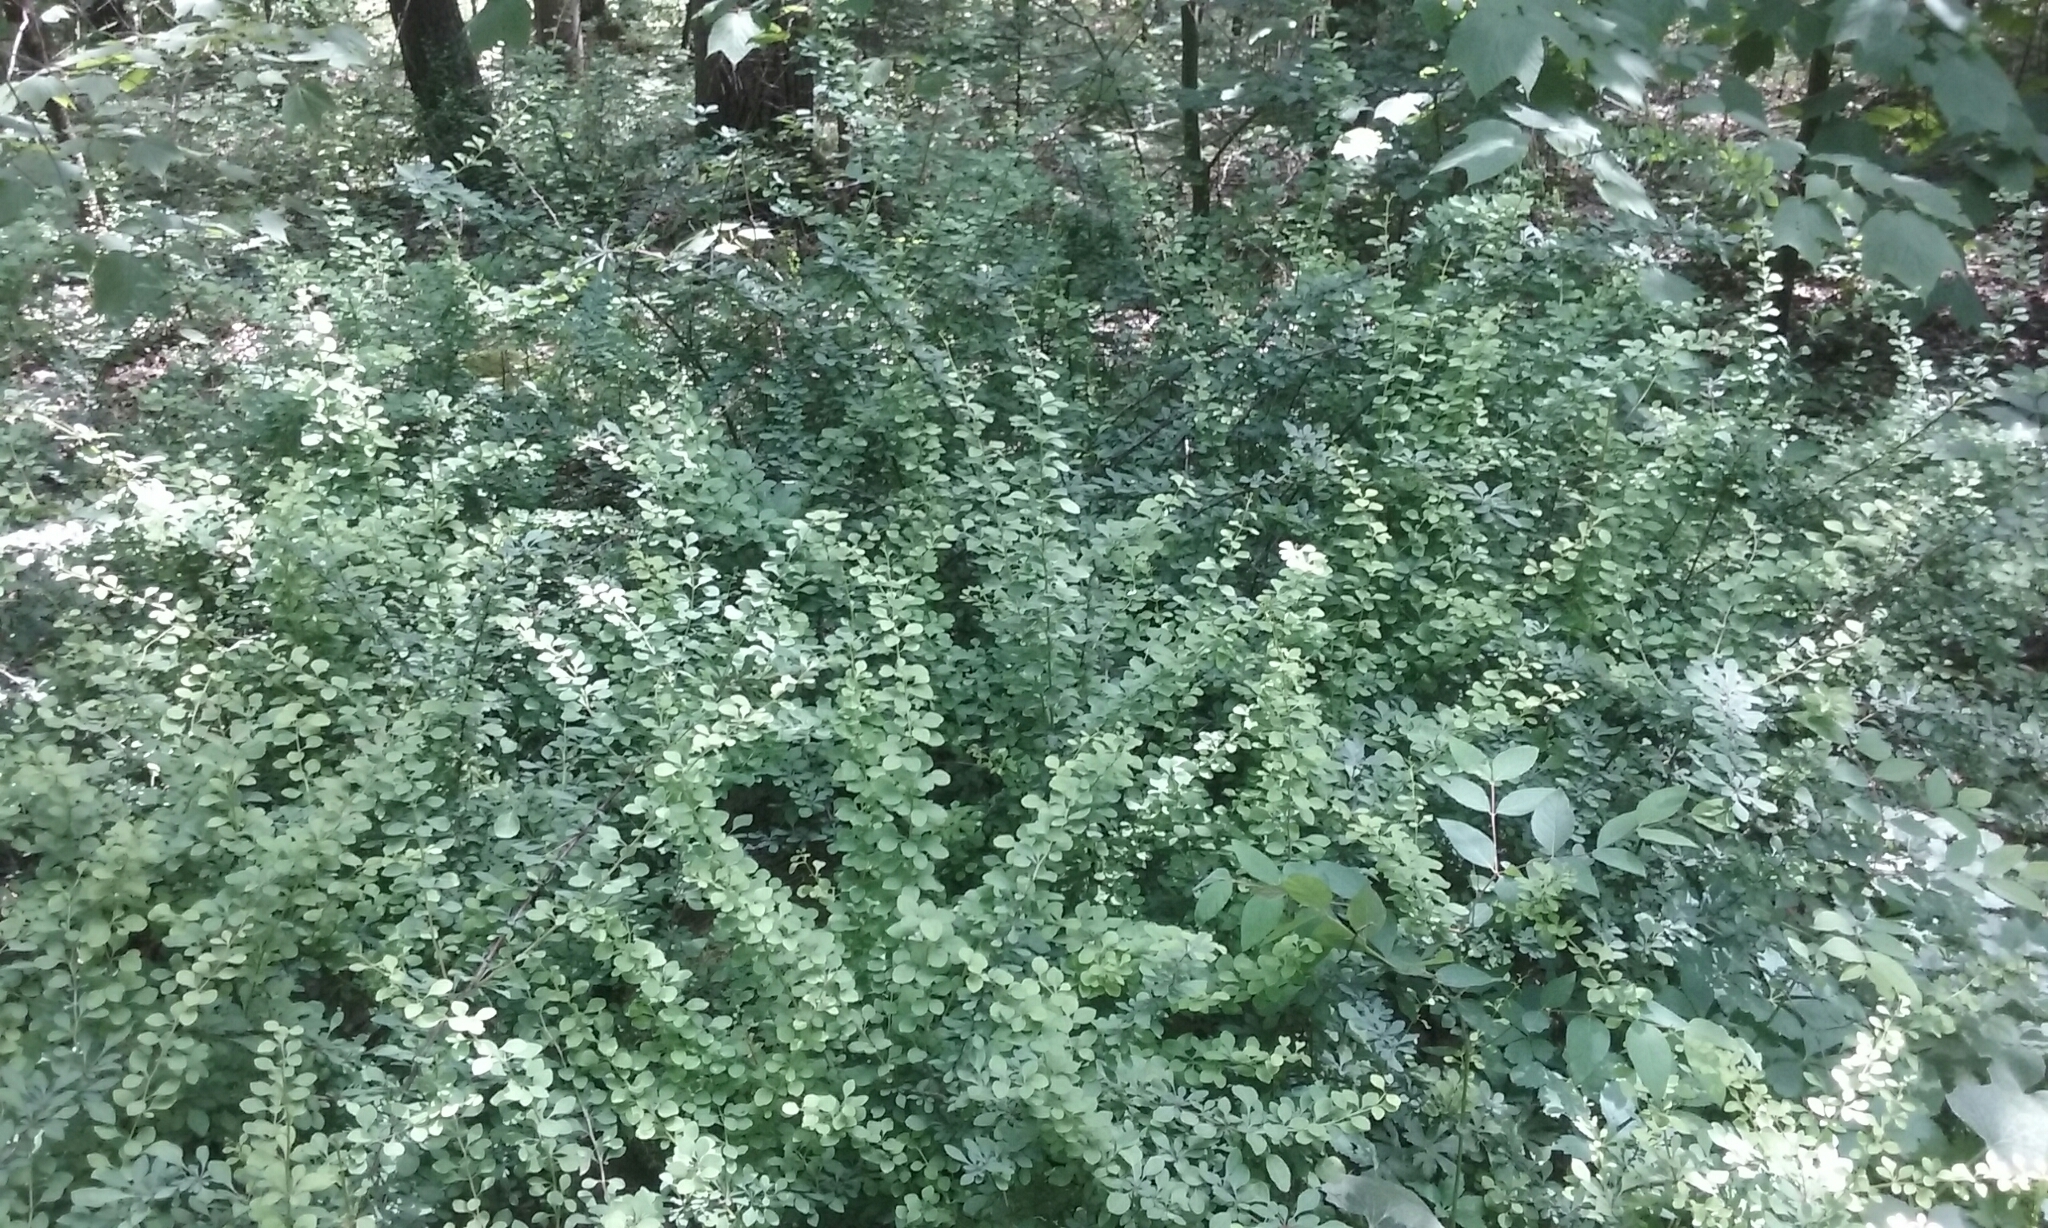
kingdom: Plantae
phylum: Tracheophyta
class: Magnoliopsida
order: Ranunculales
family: Berberidaceae
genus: Berberis
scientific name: Berberis thunbergii
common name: Japanese barberry
